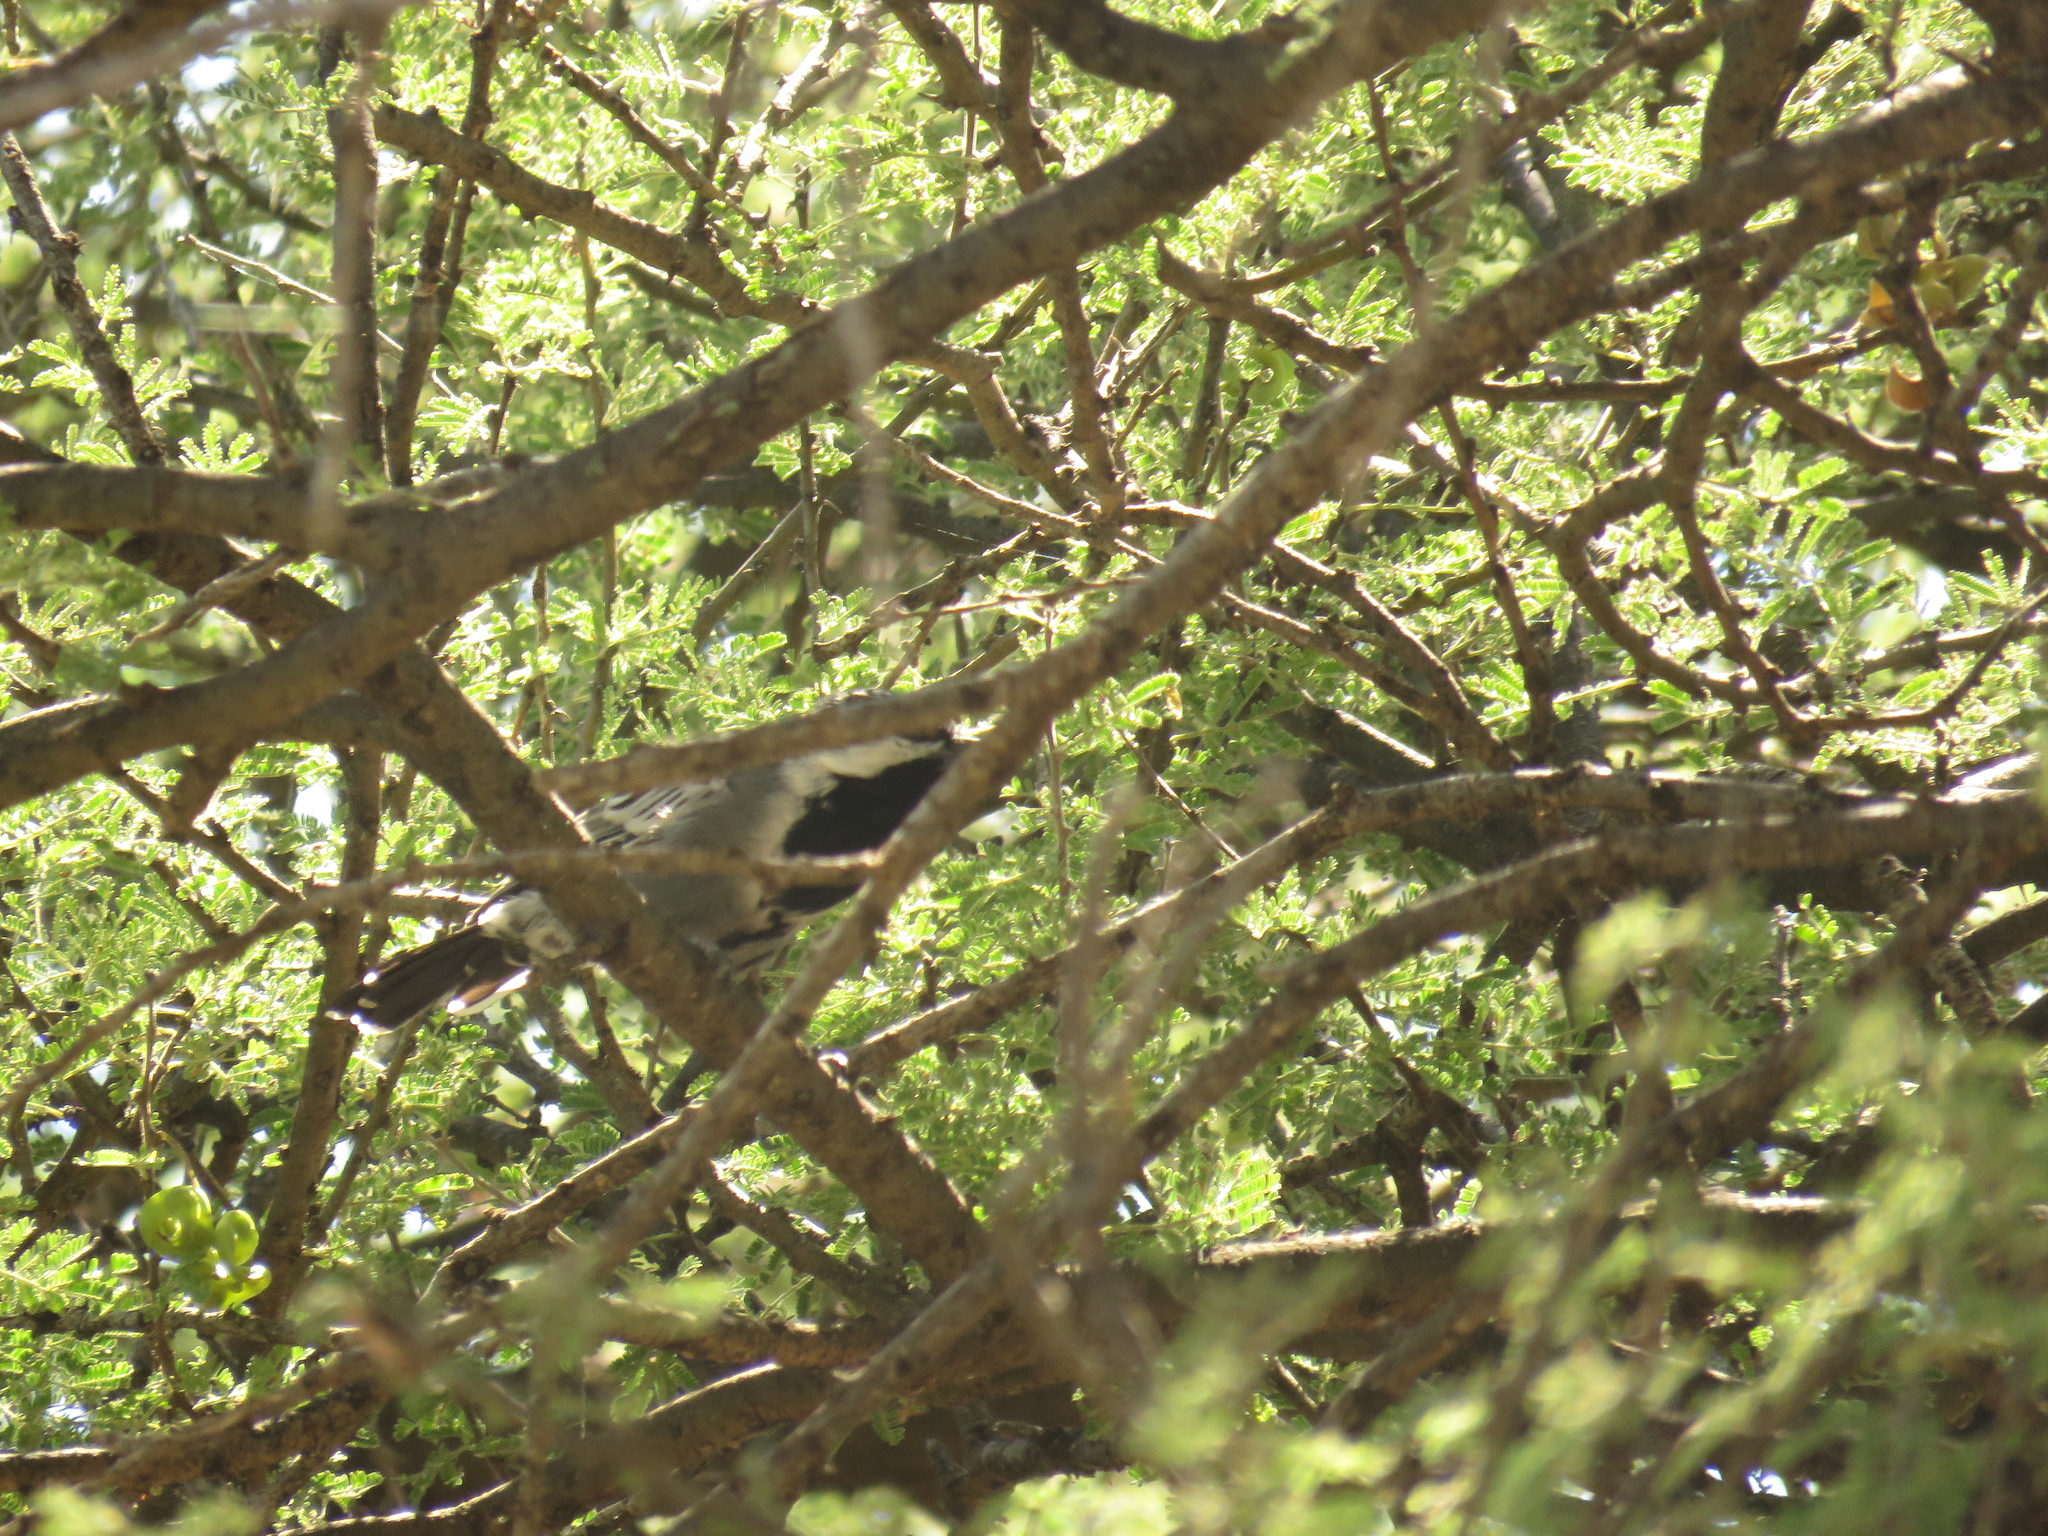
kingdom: Animalia
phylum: Chordata
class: Aves
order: Passeriformes
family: Paridae
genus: Parus
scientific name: Parus cinerascens
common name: Ashy tit
